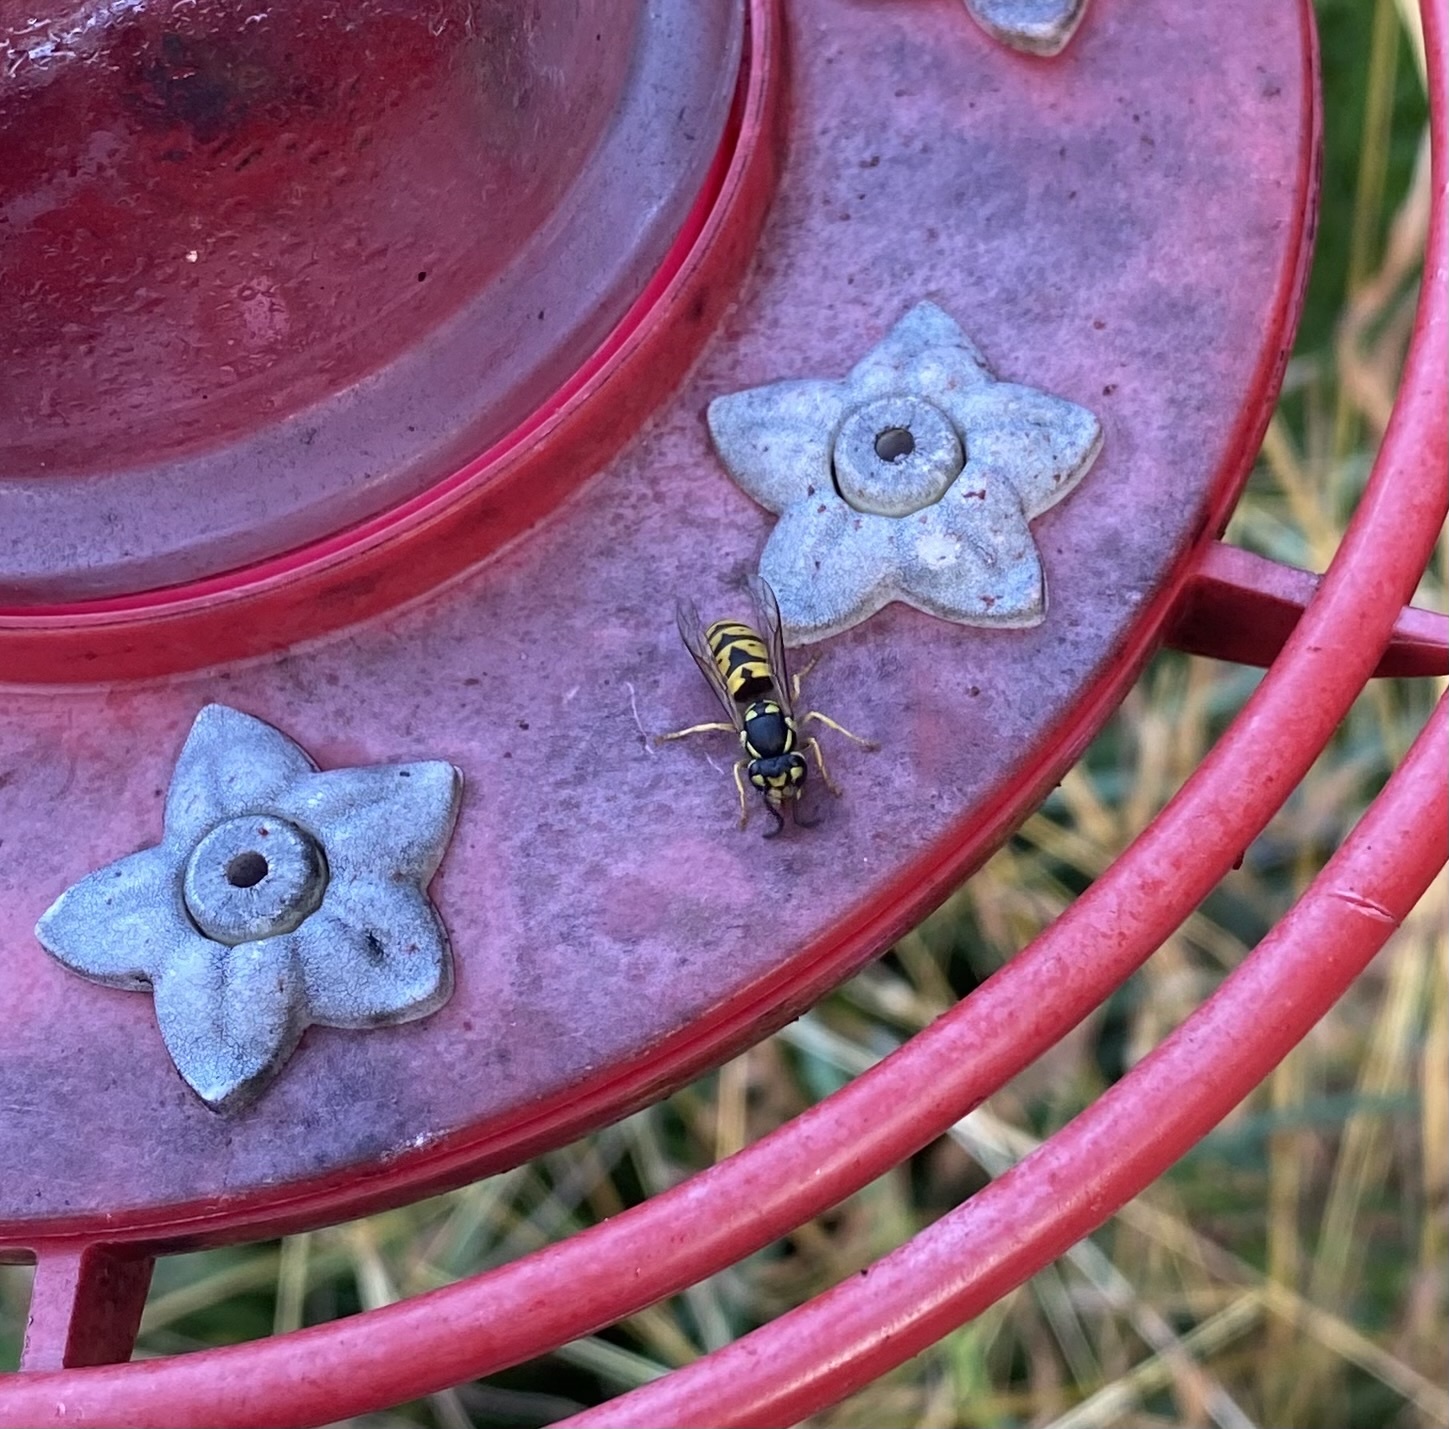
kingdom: Animalia
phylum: Arthropoda
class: Insecta
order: Hymenoptera
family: Vespidae
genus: Vespula
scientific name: Vespula germanica
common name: German wasp
